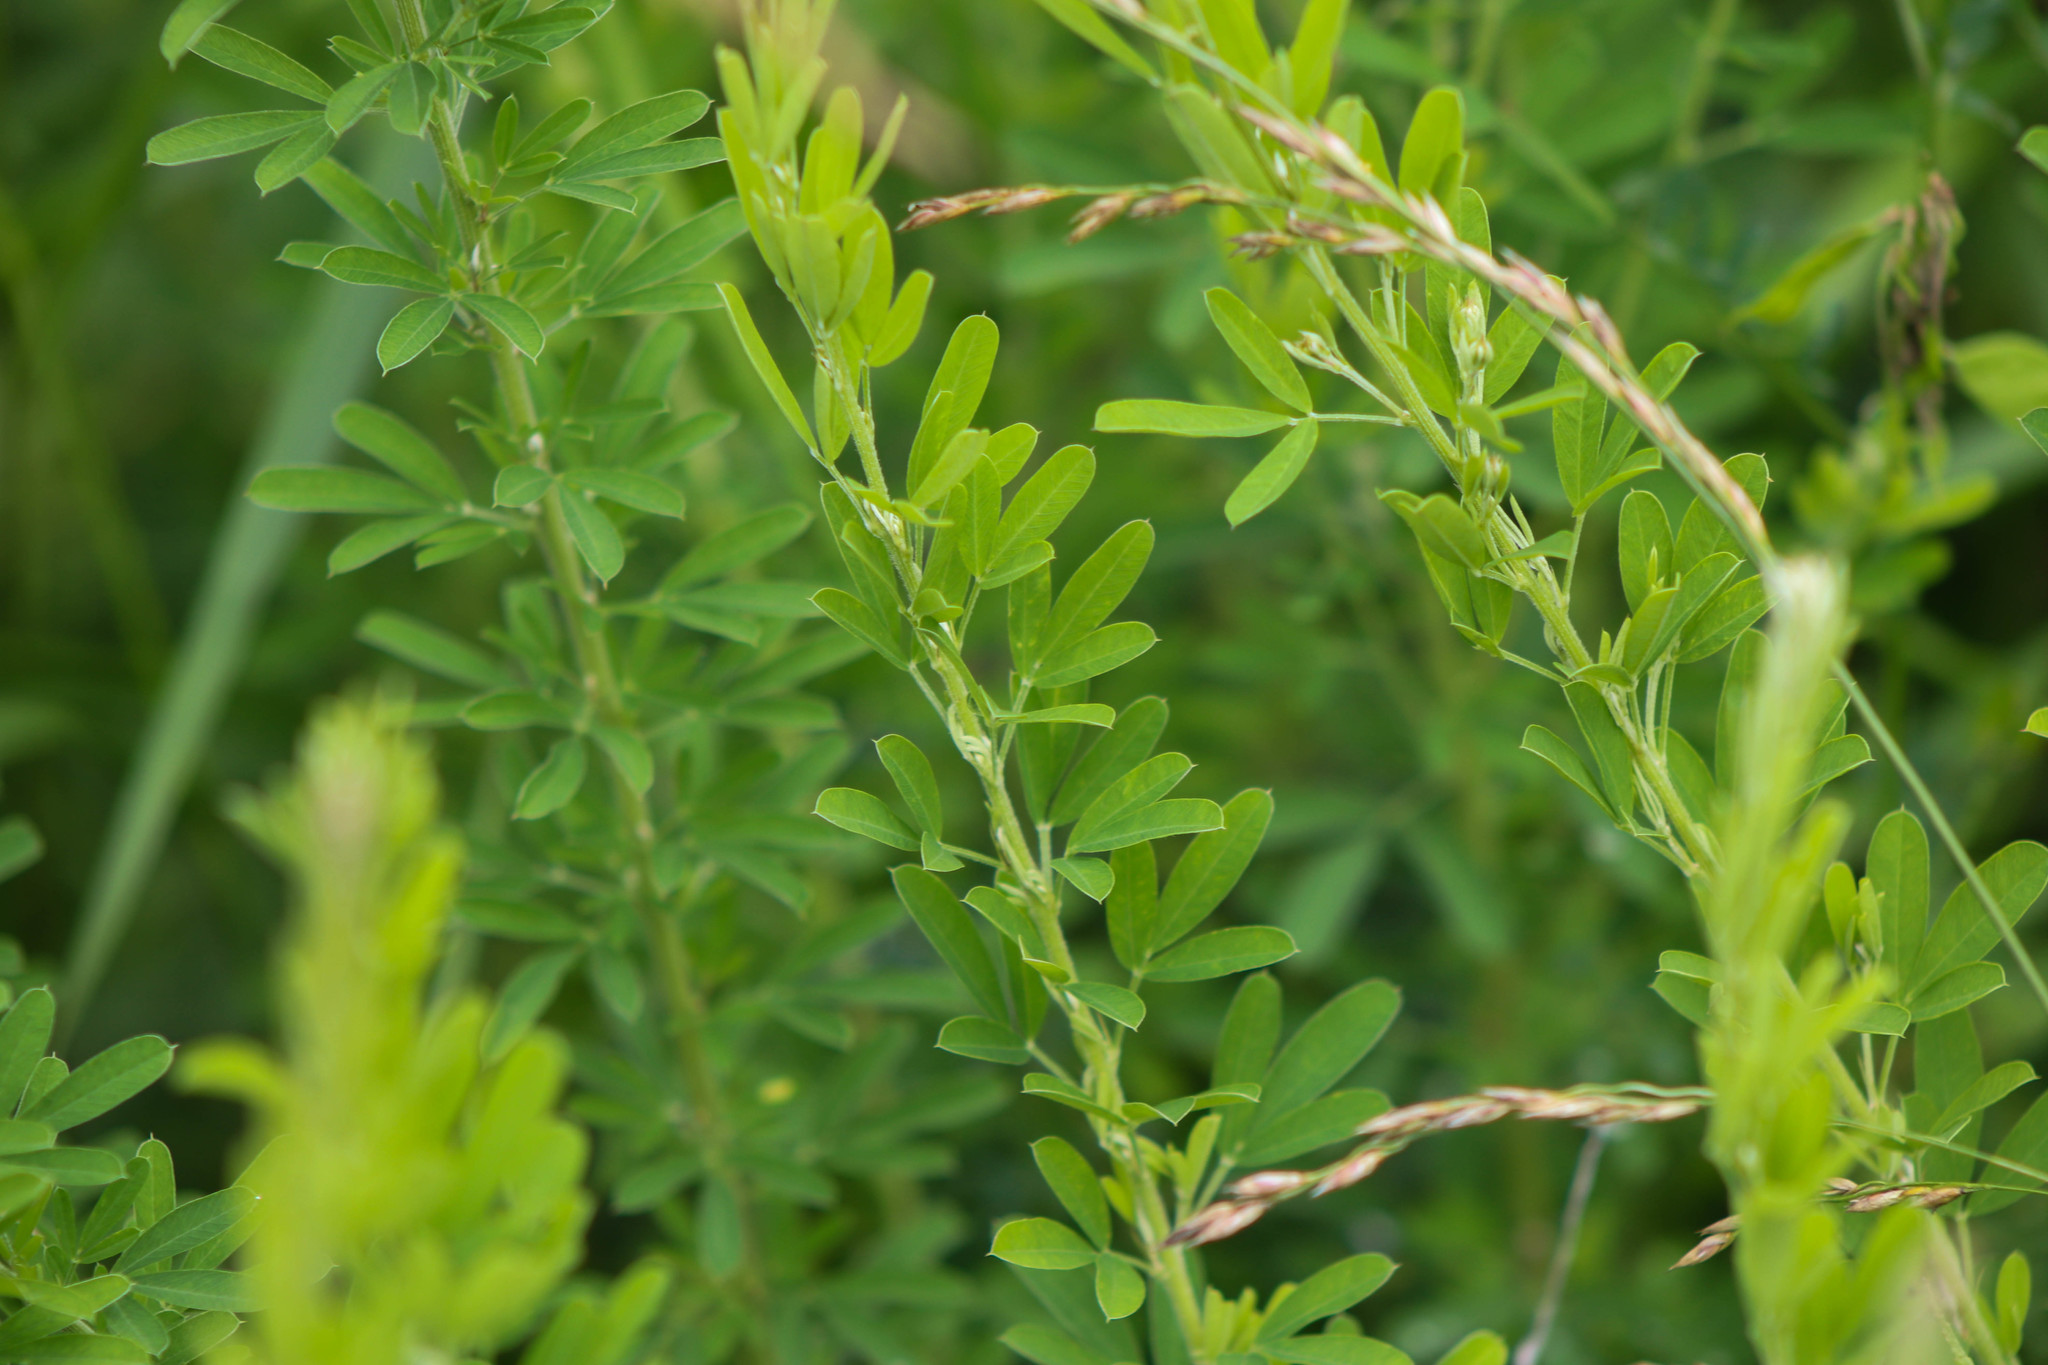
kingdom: Plantae
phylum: Tracheophyta
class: Magnoliopsida
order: Fabales
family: Fabaceae
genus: Lespedeza
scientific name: Lespedeza cuneata
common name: Chinese bush-clover
